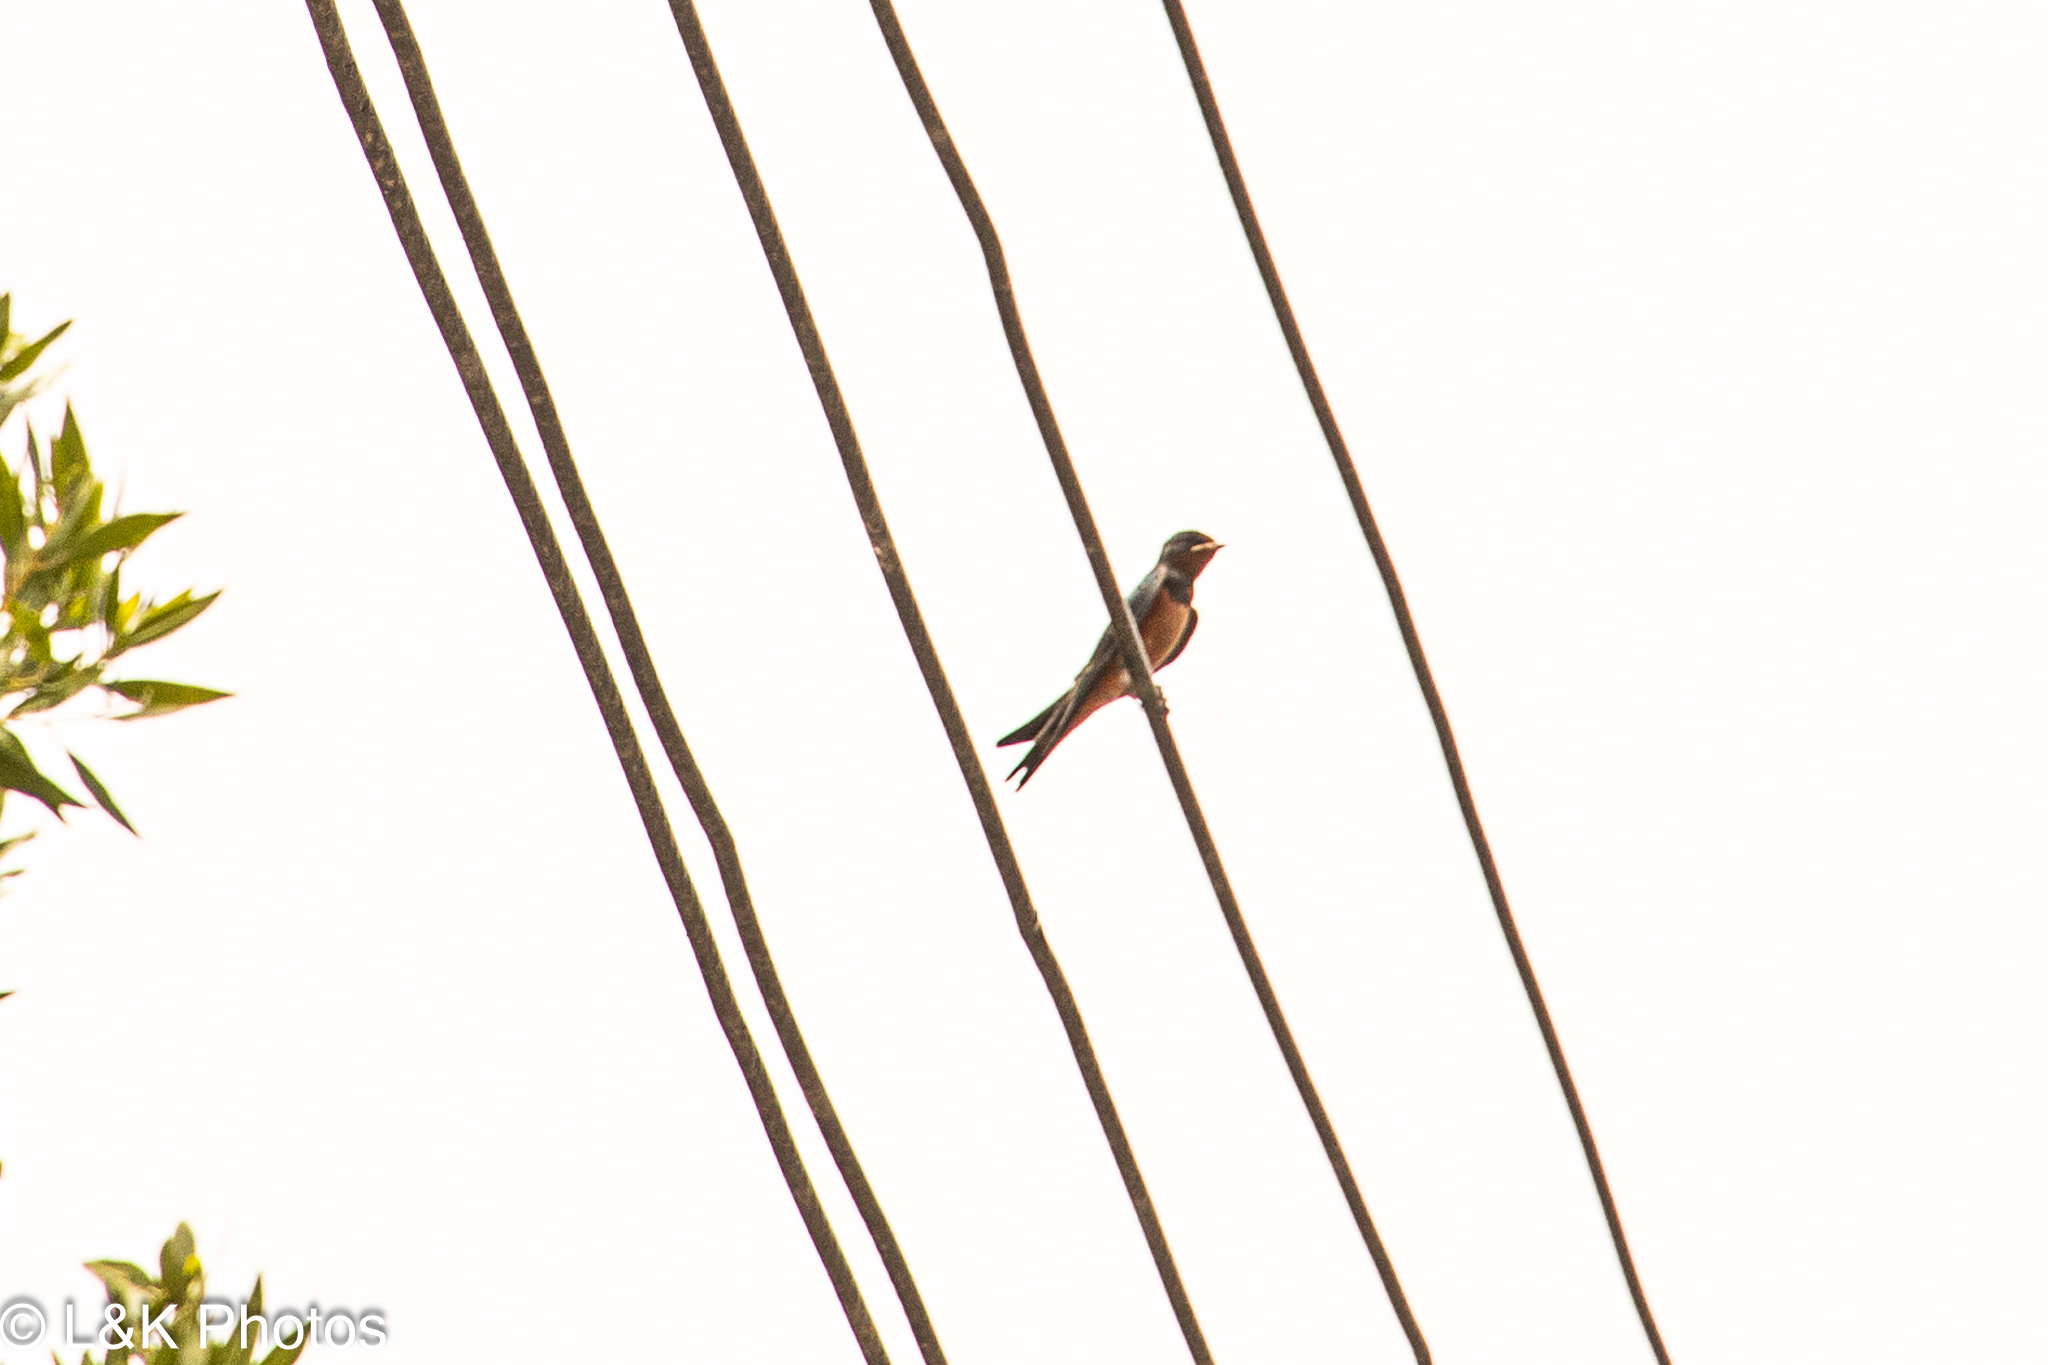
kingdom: Animalia
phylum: Chordata
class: Aves
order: Passeriformes
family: Hirundinidae
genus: Hirundo
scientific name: Hirundo rustica
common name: Barn swallow
